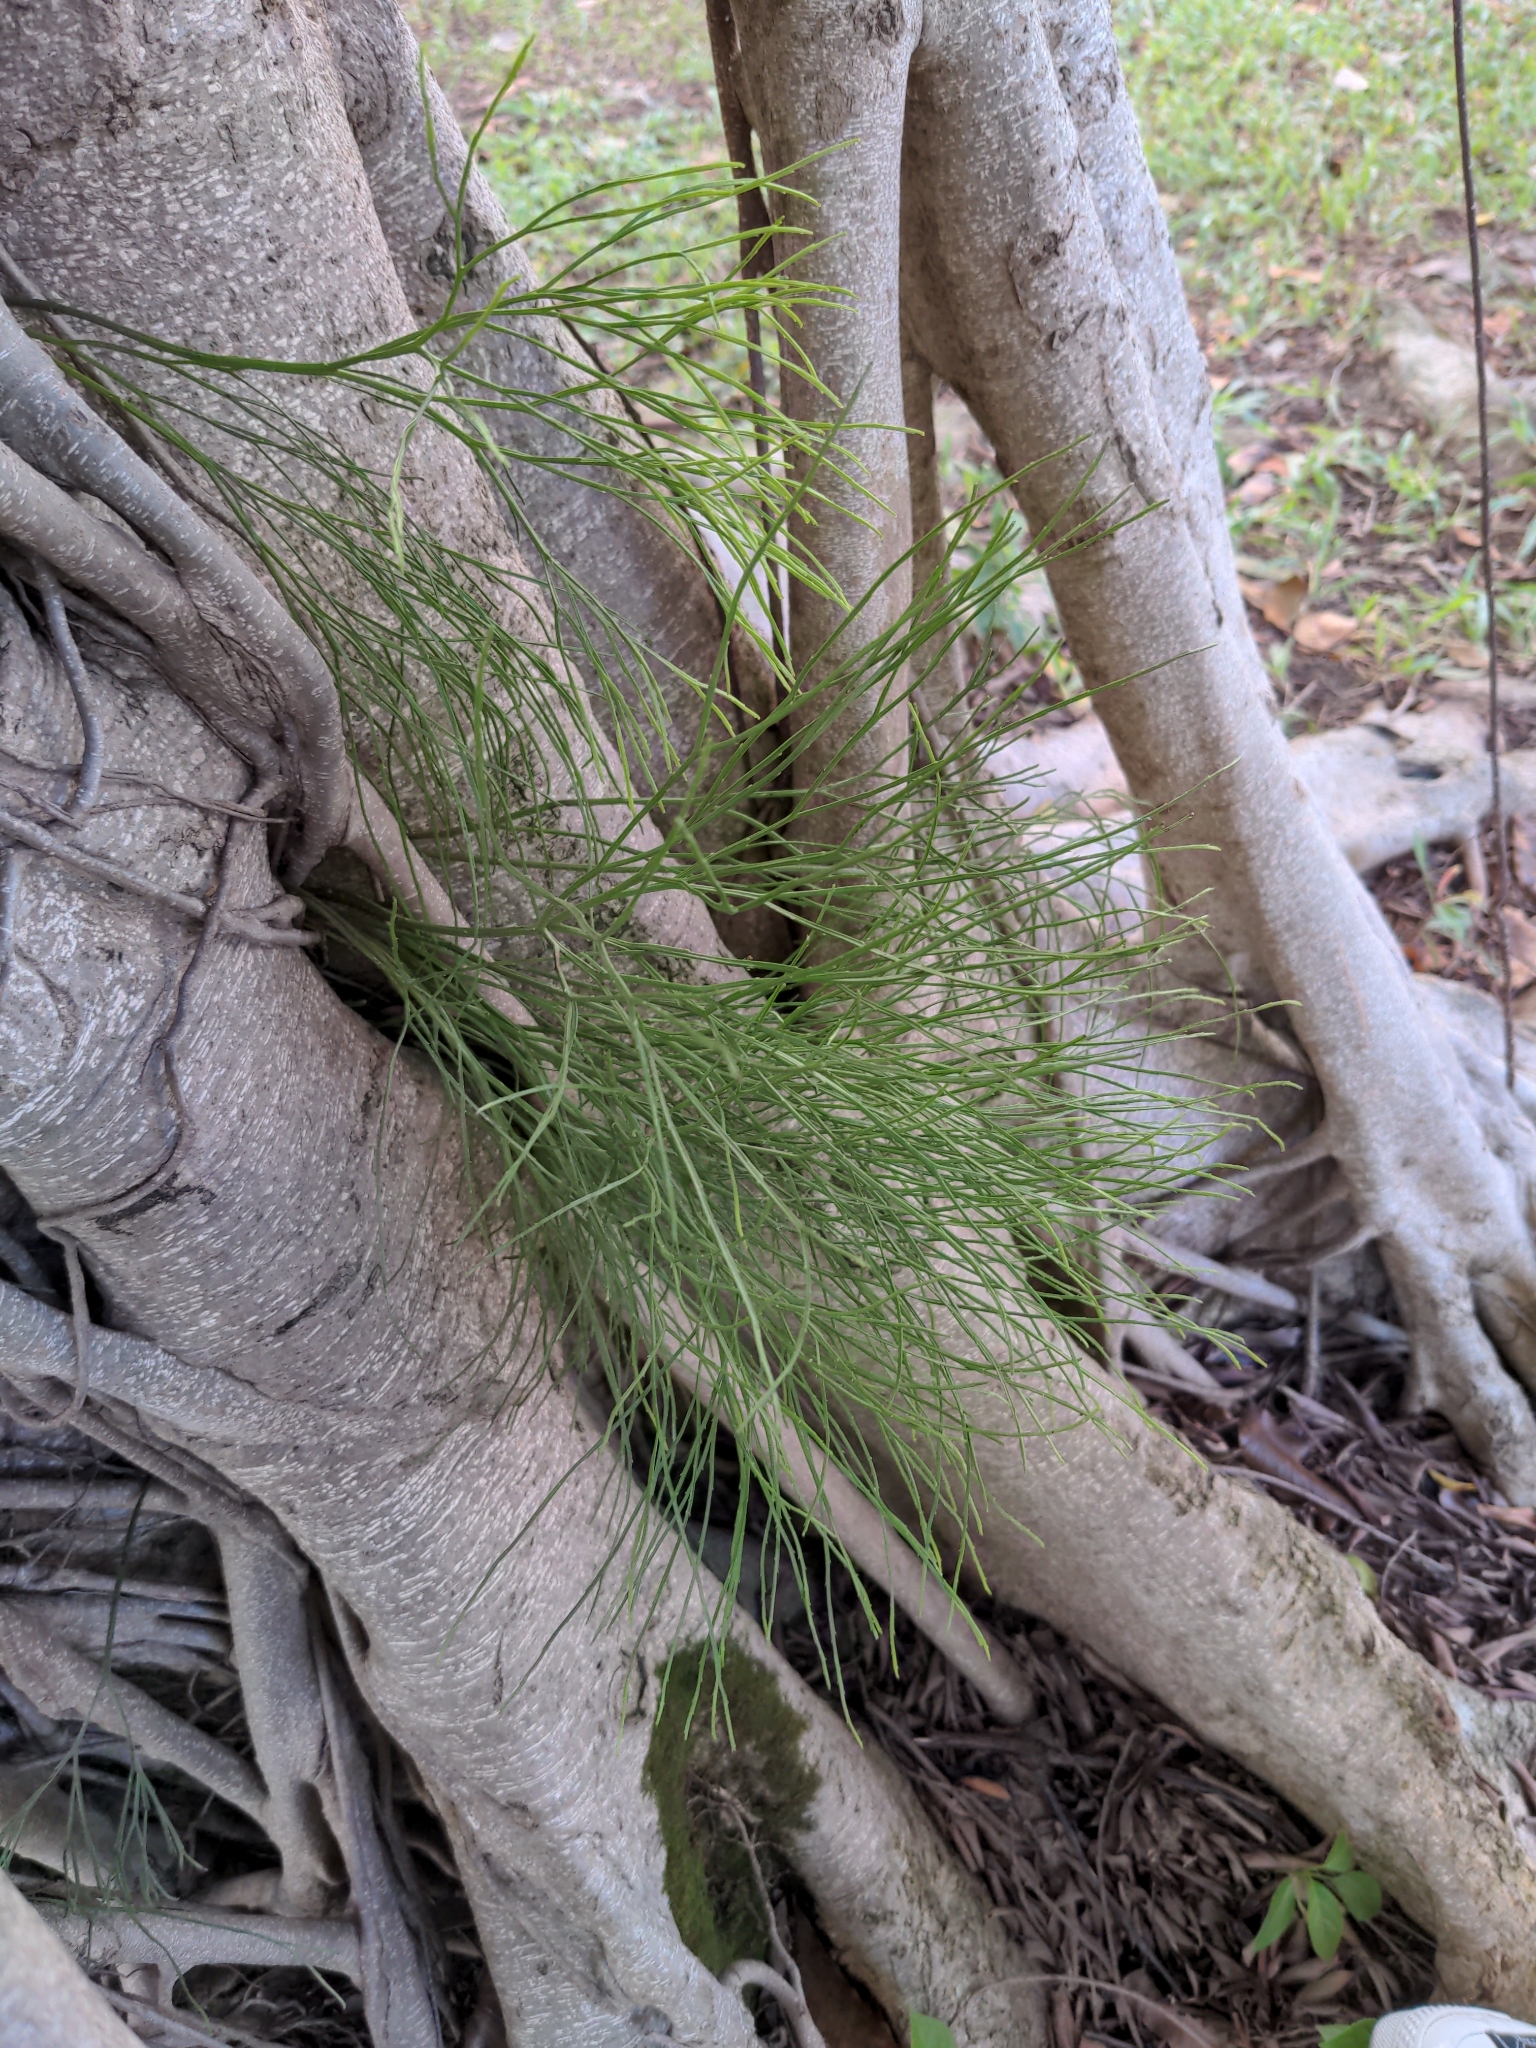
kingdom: Plantae
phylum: Tracheophyta
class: Polypodiopsida
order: Psilotales
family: Psilotaceae
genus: Psilotum
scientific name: Psilotum nudum
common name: Skeleton fork fern
